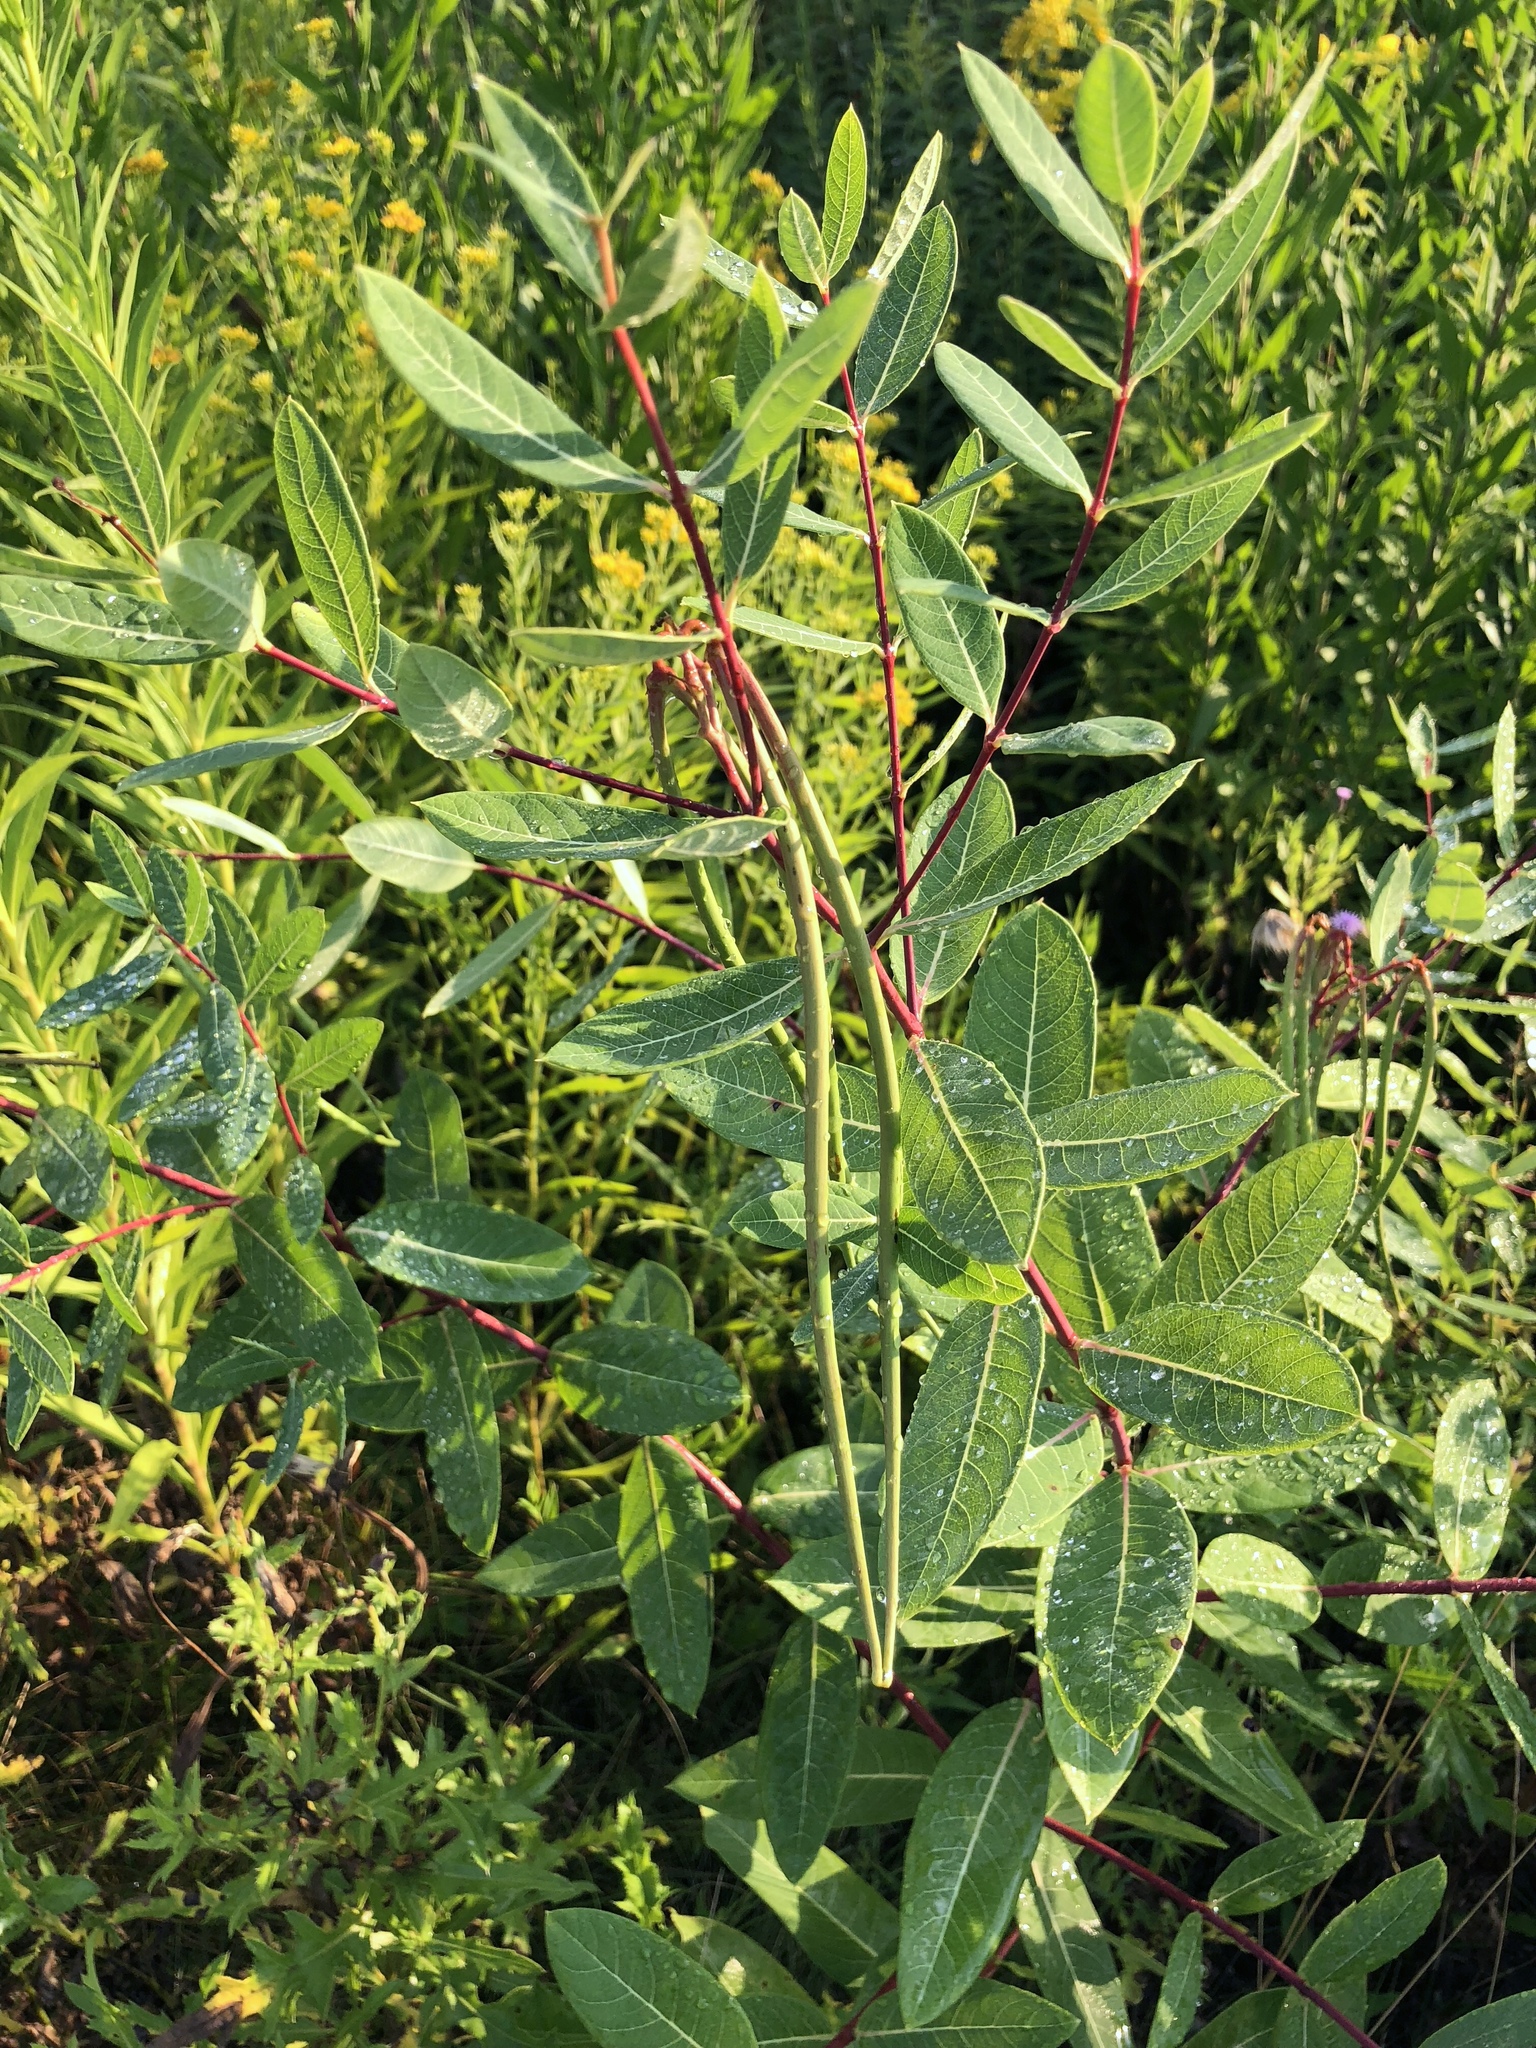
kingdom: Plantae
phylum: Tracheophyta
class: Magnoliopsida
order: Gentianales
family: Apocynaceae
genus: Apocynum
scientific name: Apocynum cannabinum
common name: Hemp dogbane
